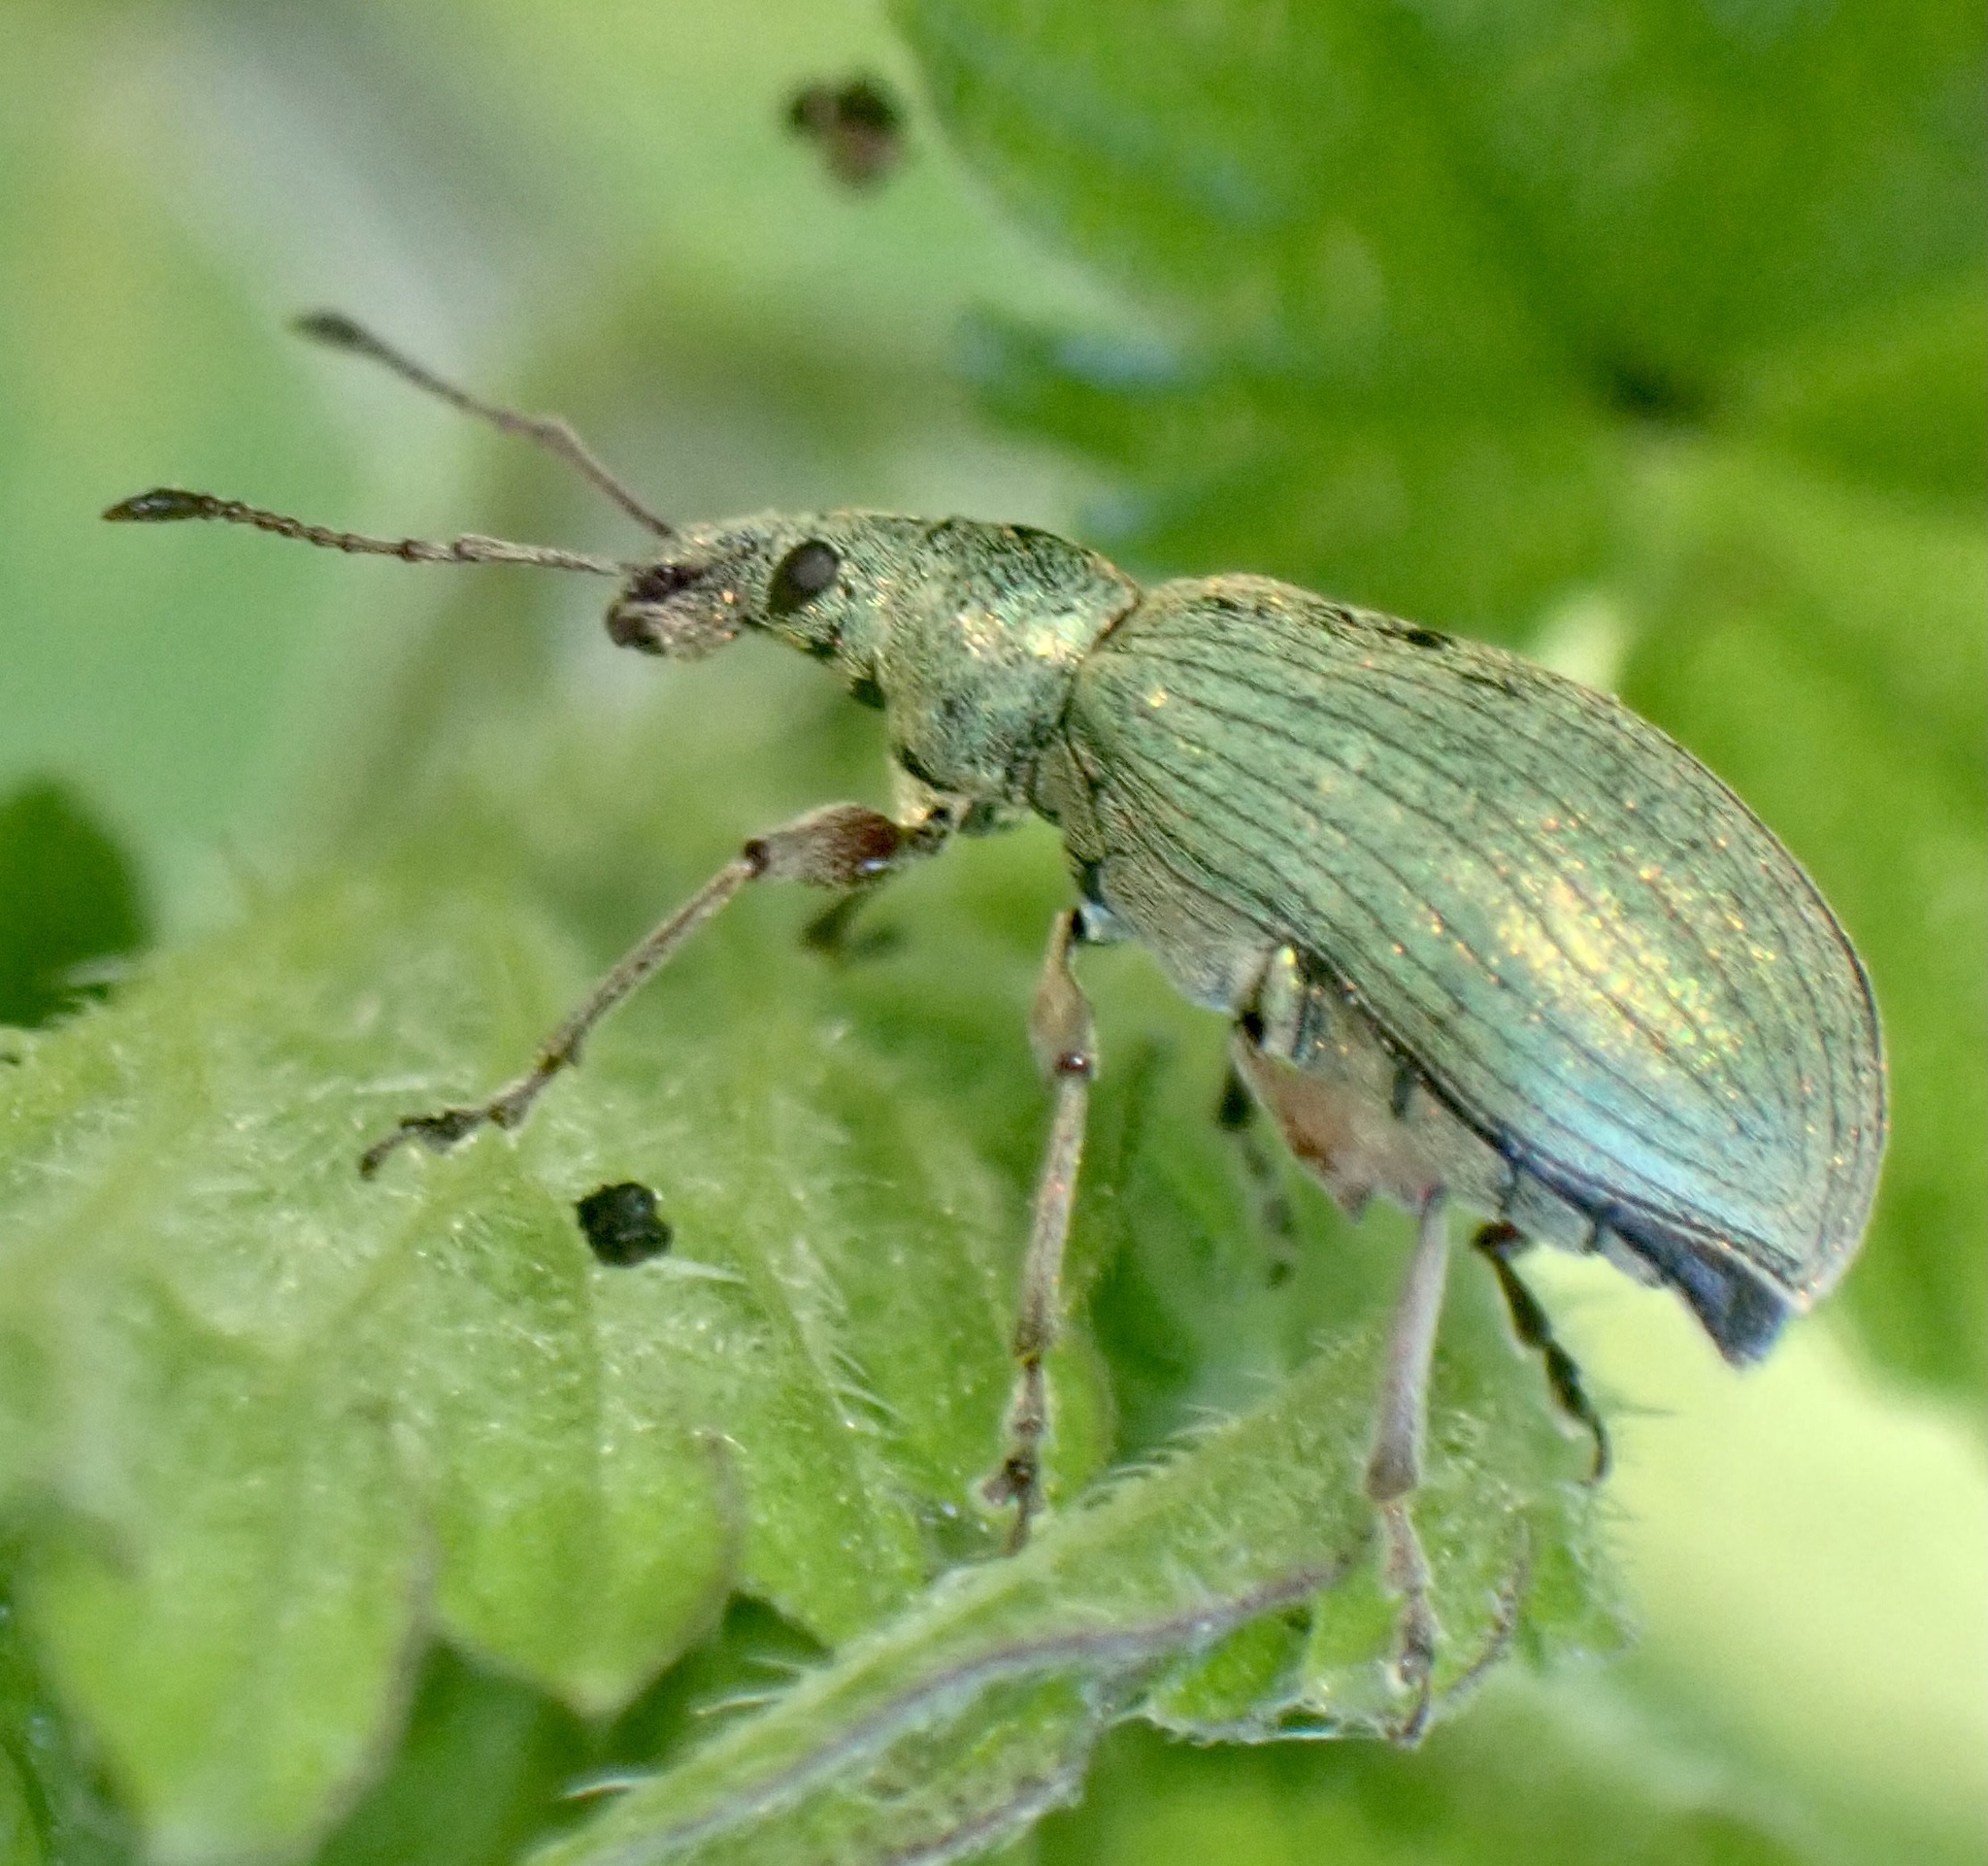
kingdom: Animalia
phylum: Arthropoda
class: Insecta
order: Coleoptera
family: Curculionidae
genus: Phyllobius
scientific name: Phyllobius pomaceus
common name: Green nettle weevil
